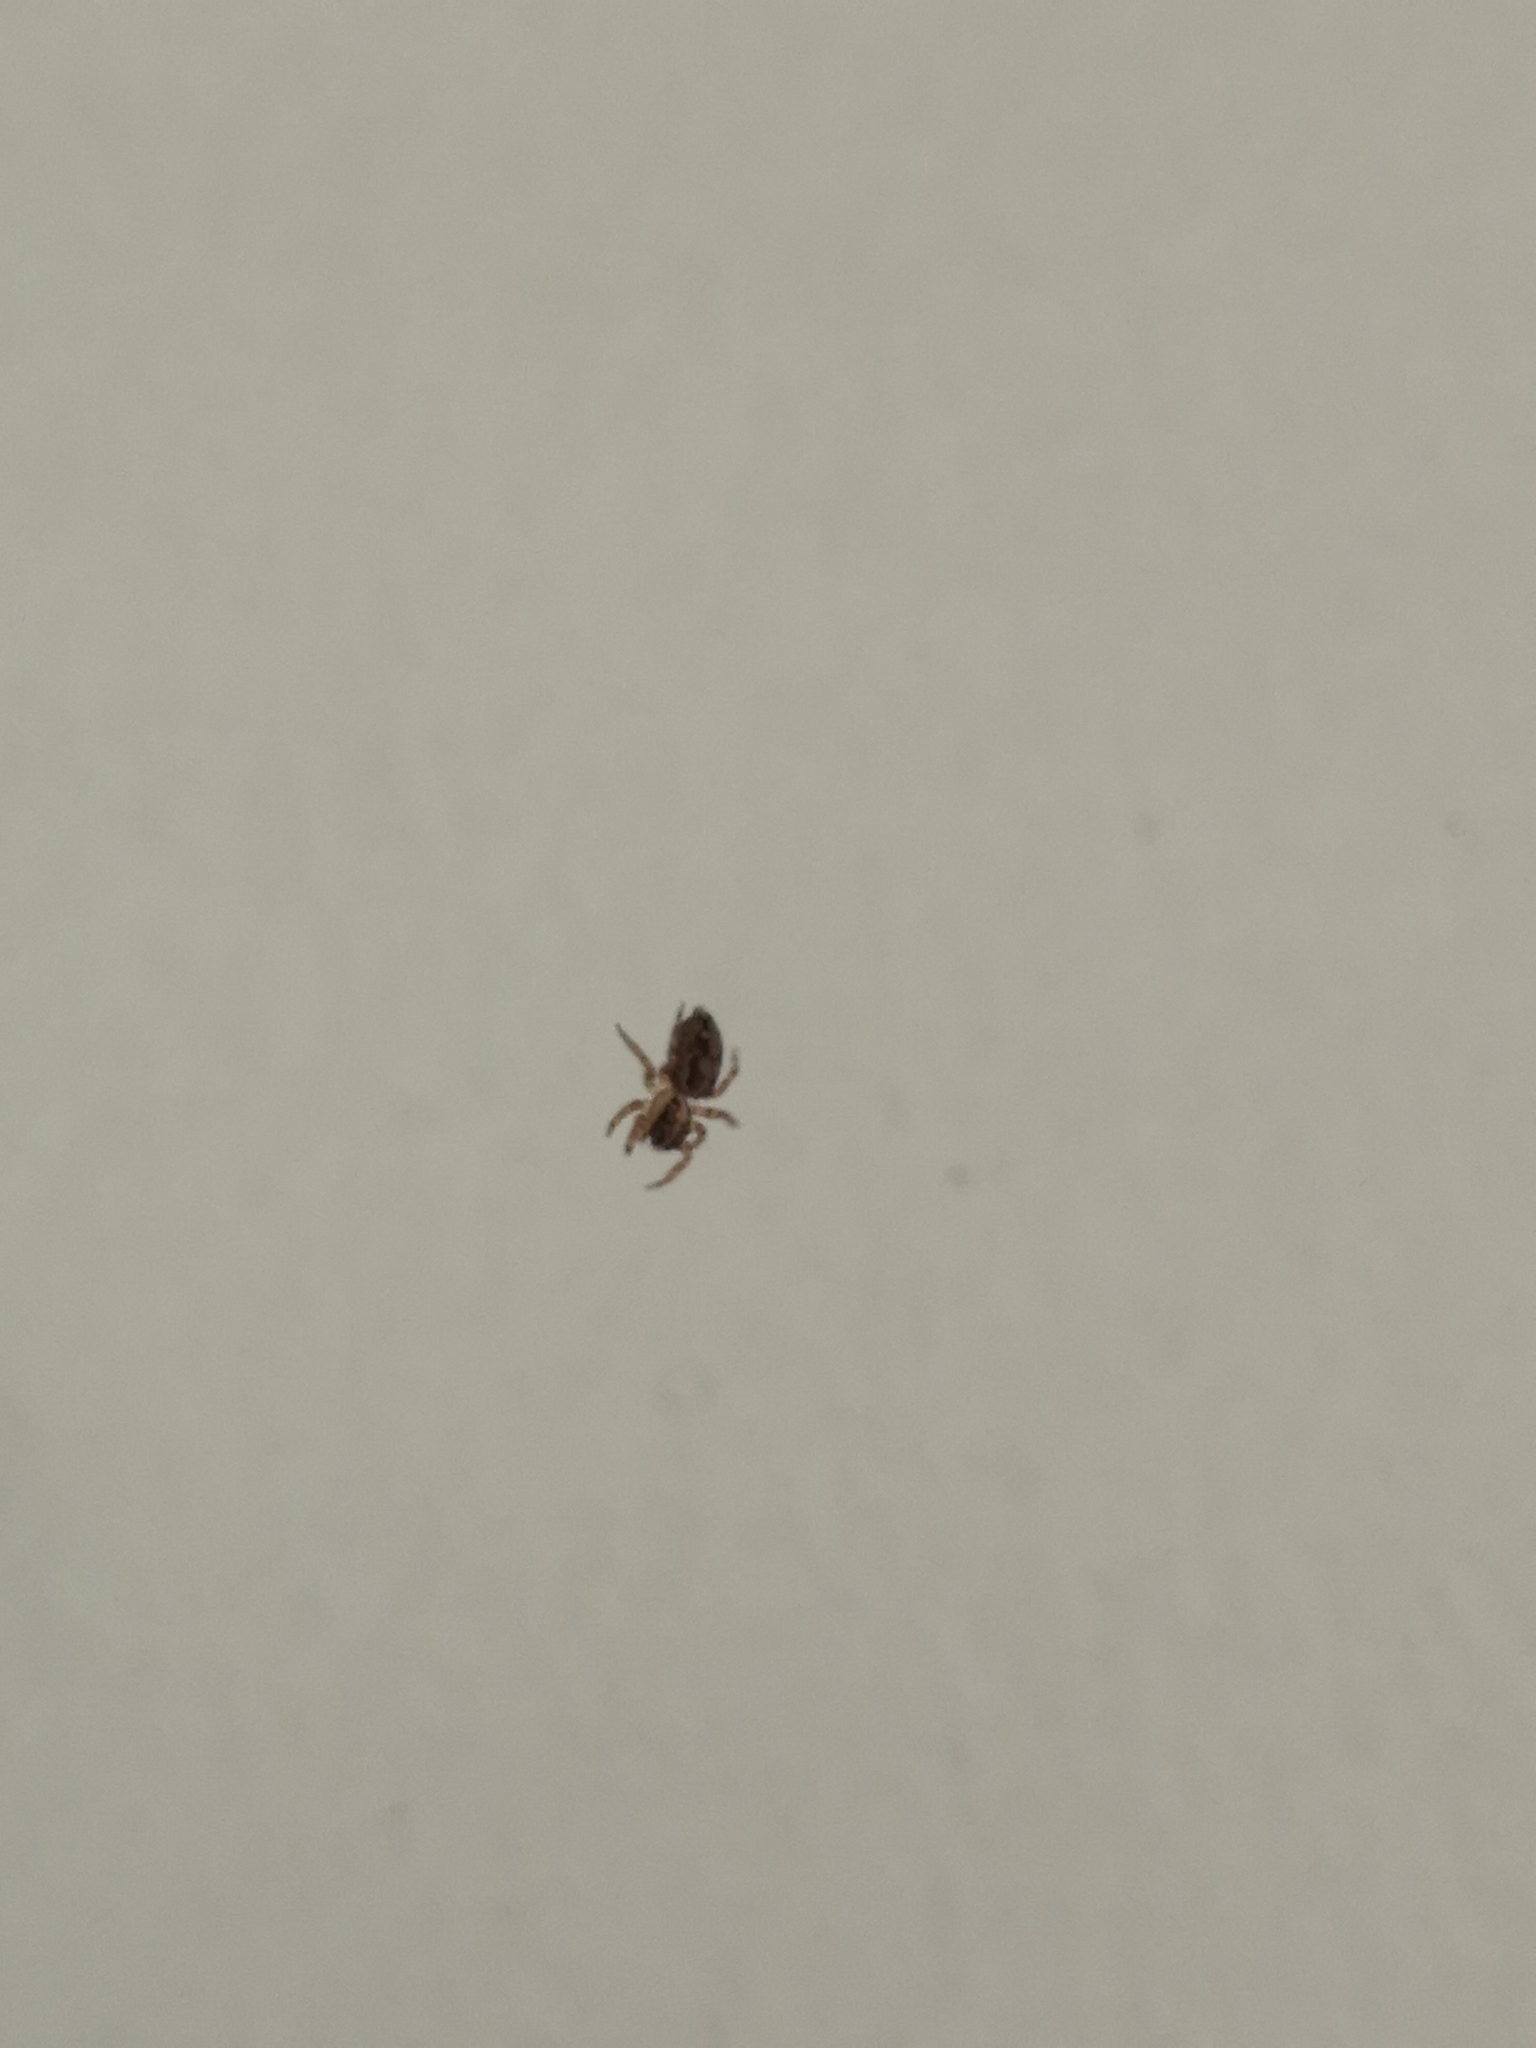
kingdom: Animalia
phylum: Arthropoda
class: Arachnida
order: Araneae
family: Salticidae
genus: Plexippus
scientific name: Plexippus paykulli
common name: Pantropical jumper
